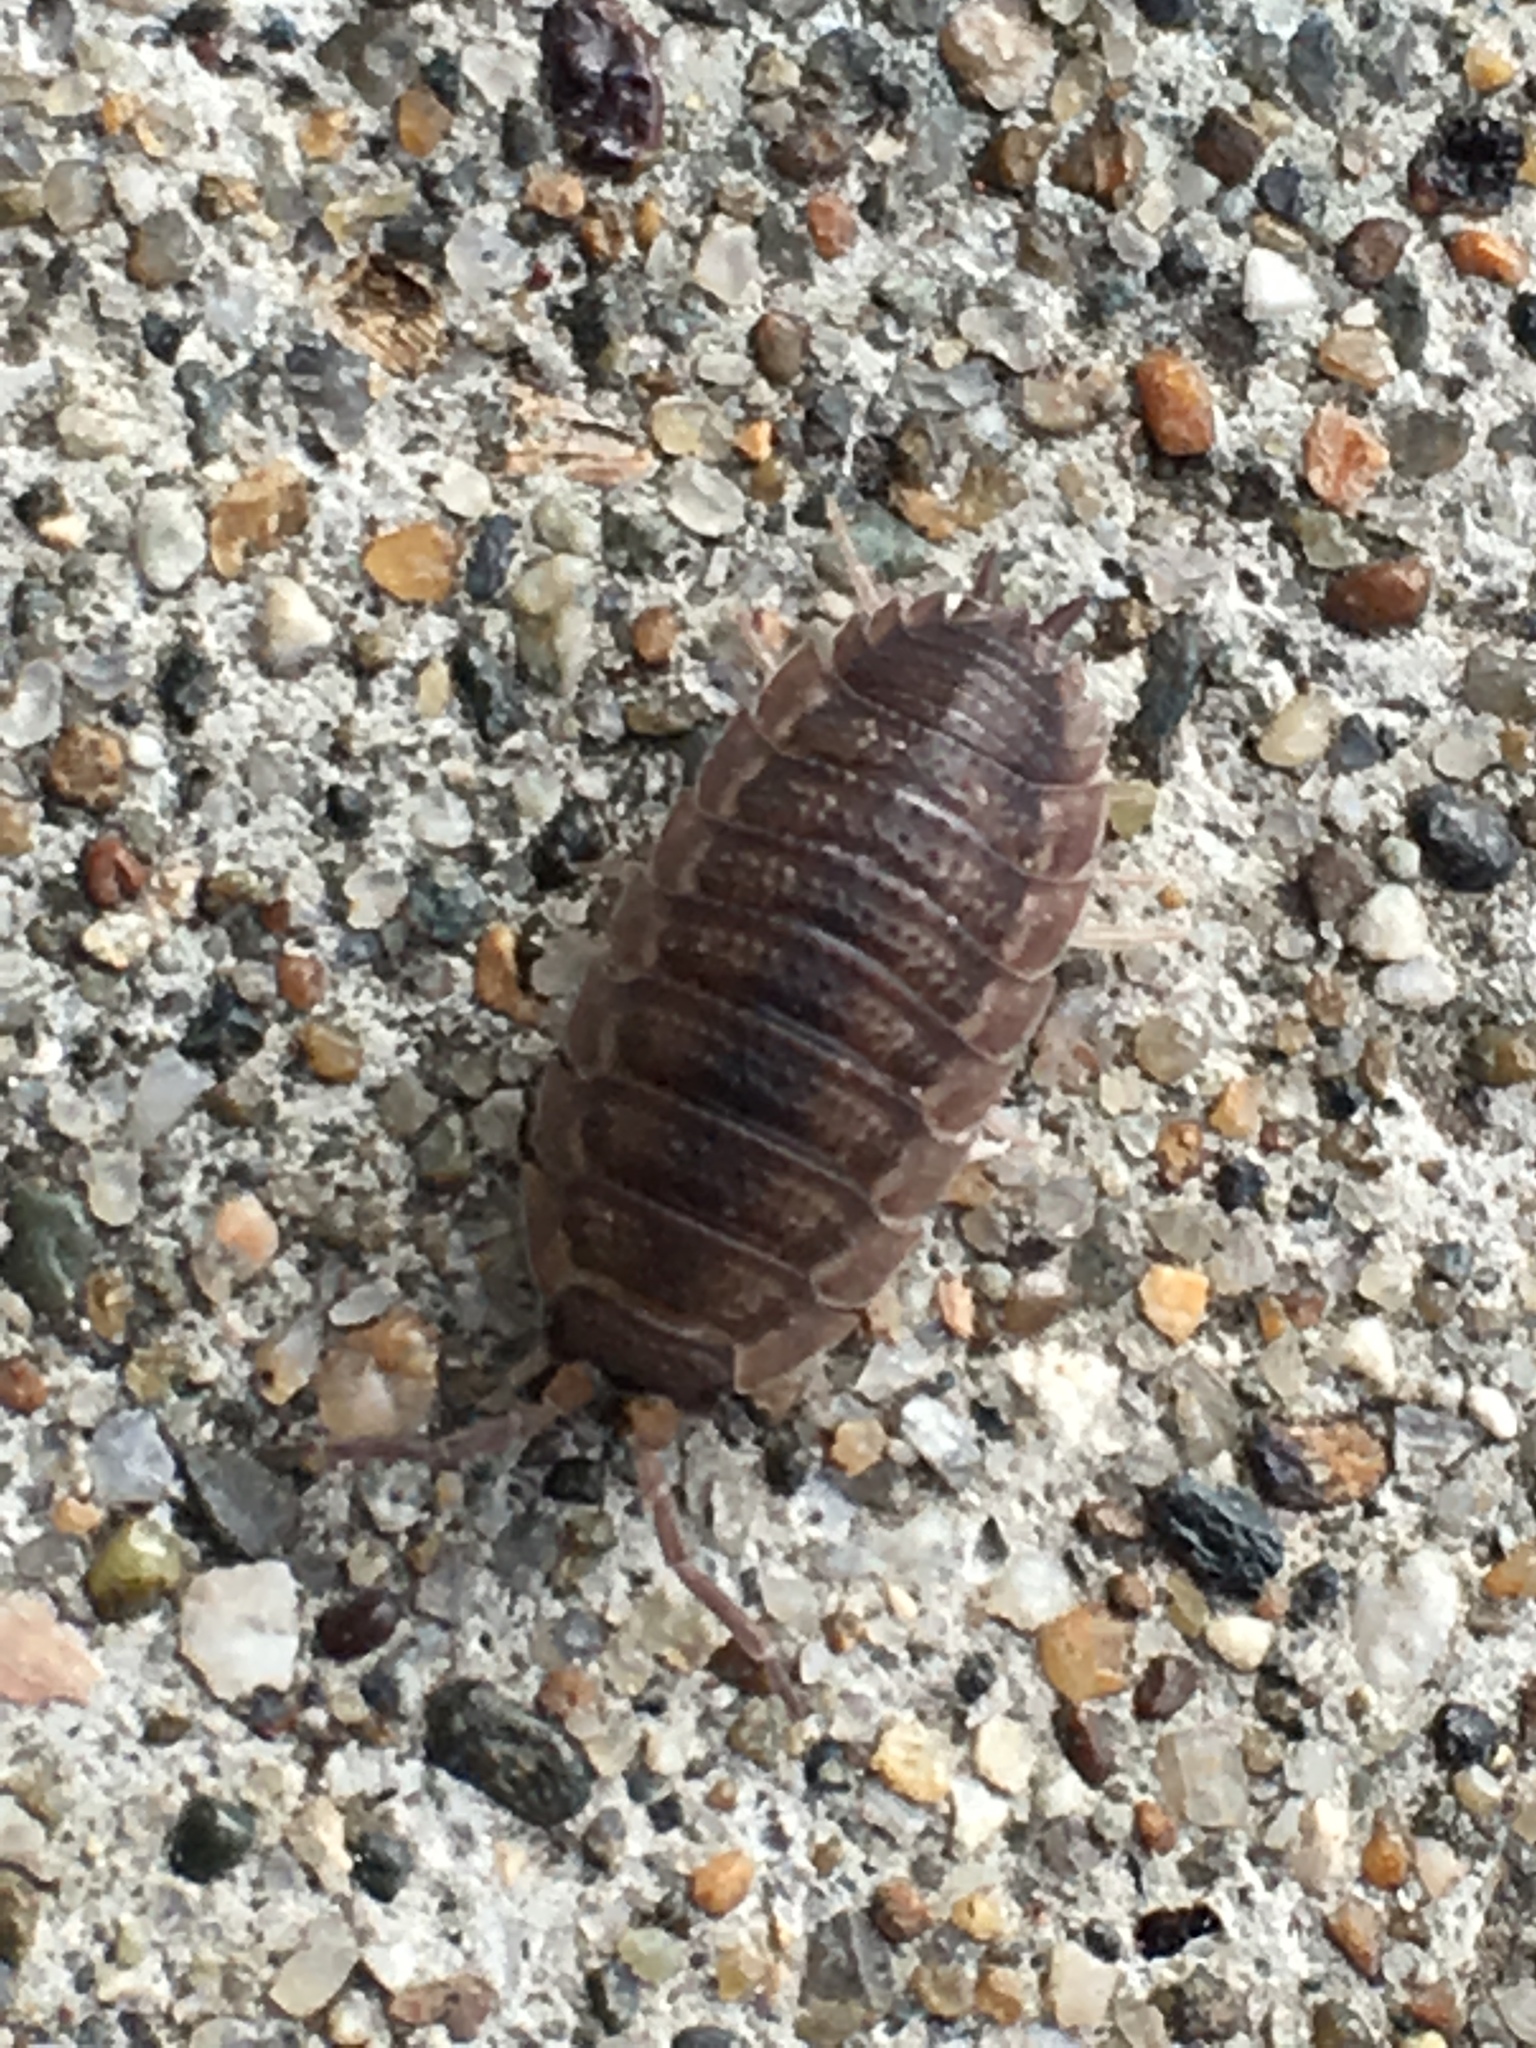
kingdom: Animalia
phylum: Arthropoda
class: Malacostraca
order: Isopoda
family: Porcellionidae
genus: Porcellio
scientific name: Porcellio scaber
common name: Common rough woodlouse
